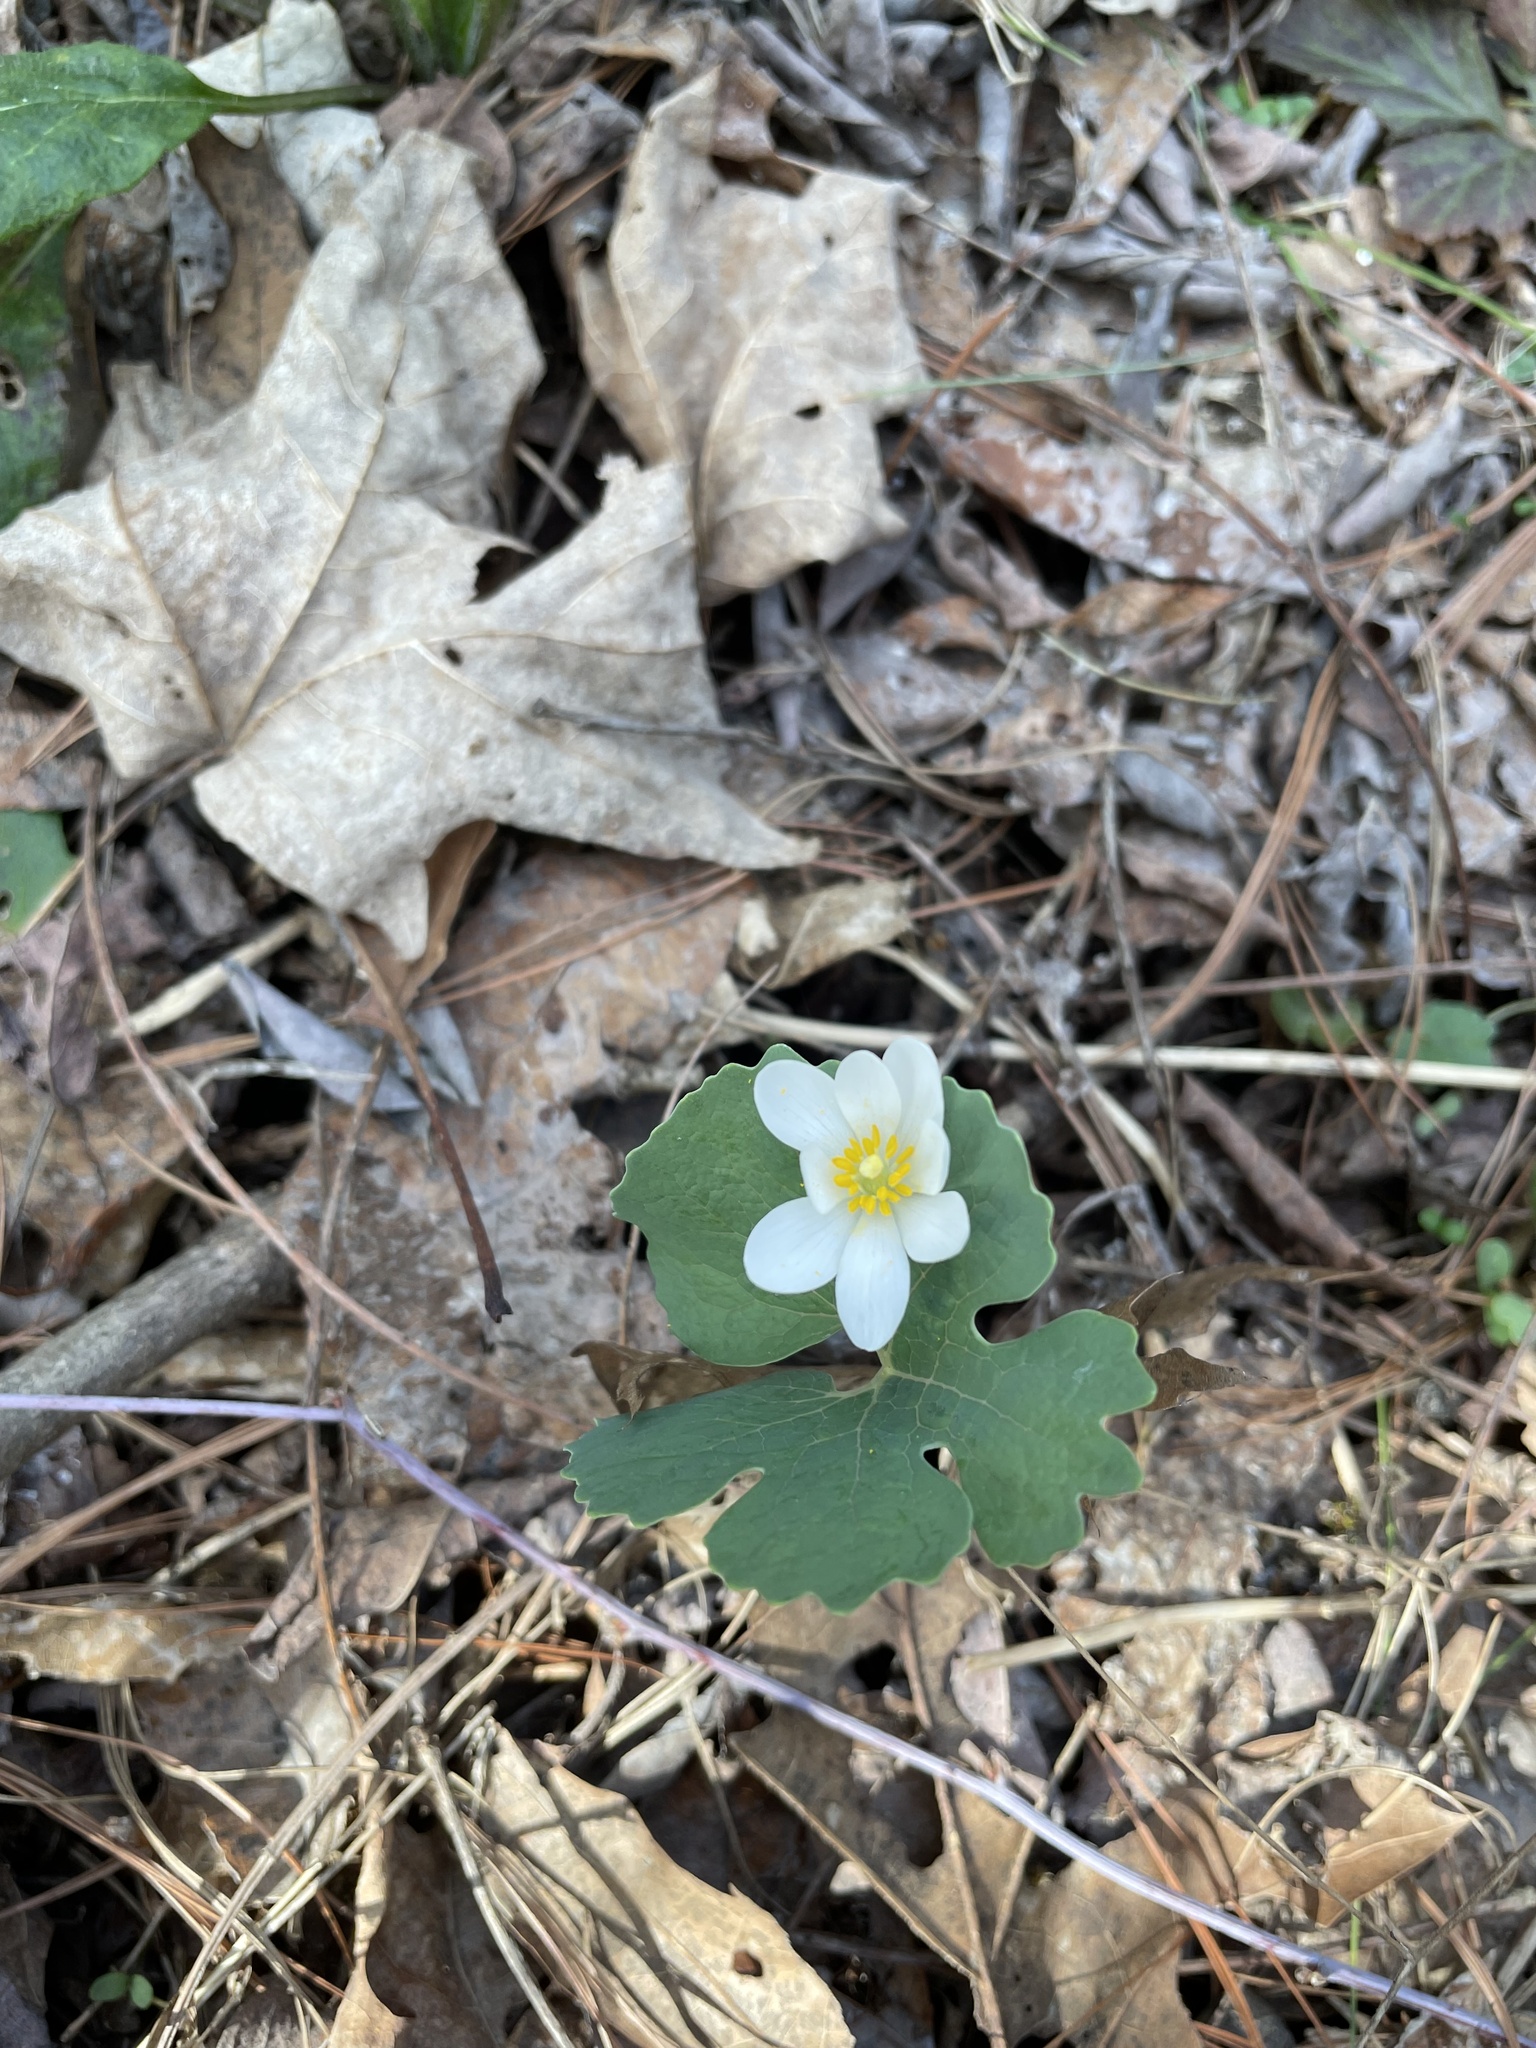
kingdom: Plantae
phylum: Tracheophyta
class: Magnoliopsida
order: Ranunculales
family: Papaveraceae
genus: Sanguinaria
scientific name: Sanguinaria canadensis
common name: Bloodroot
